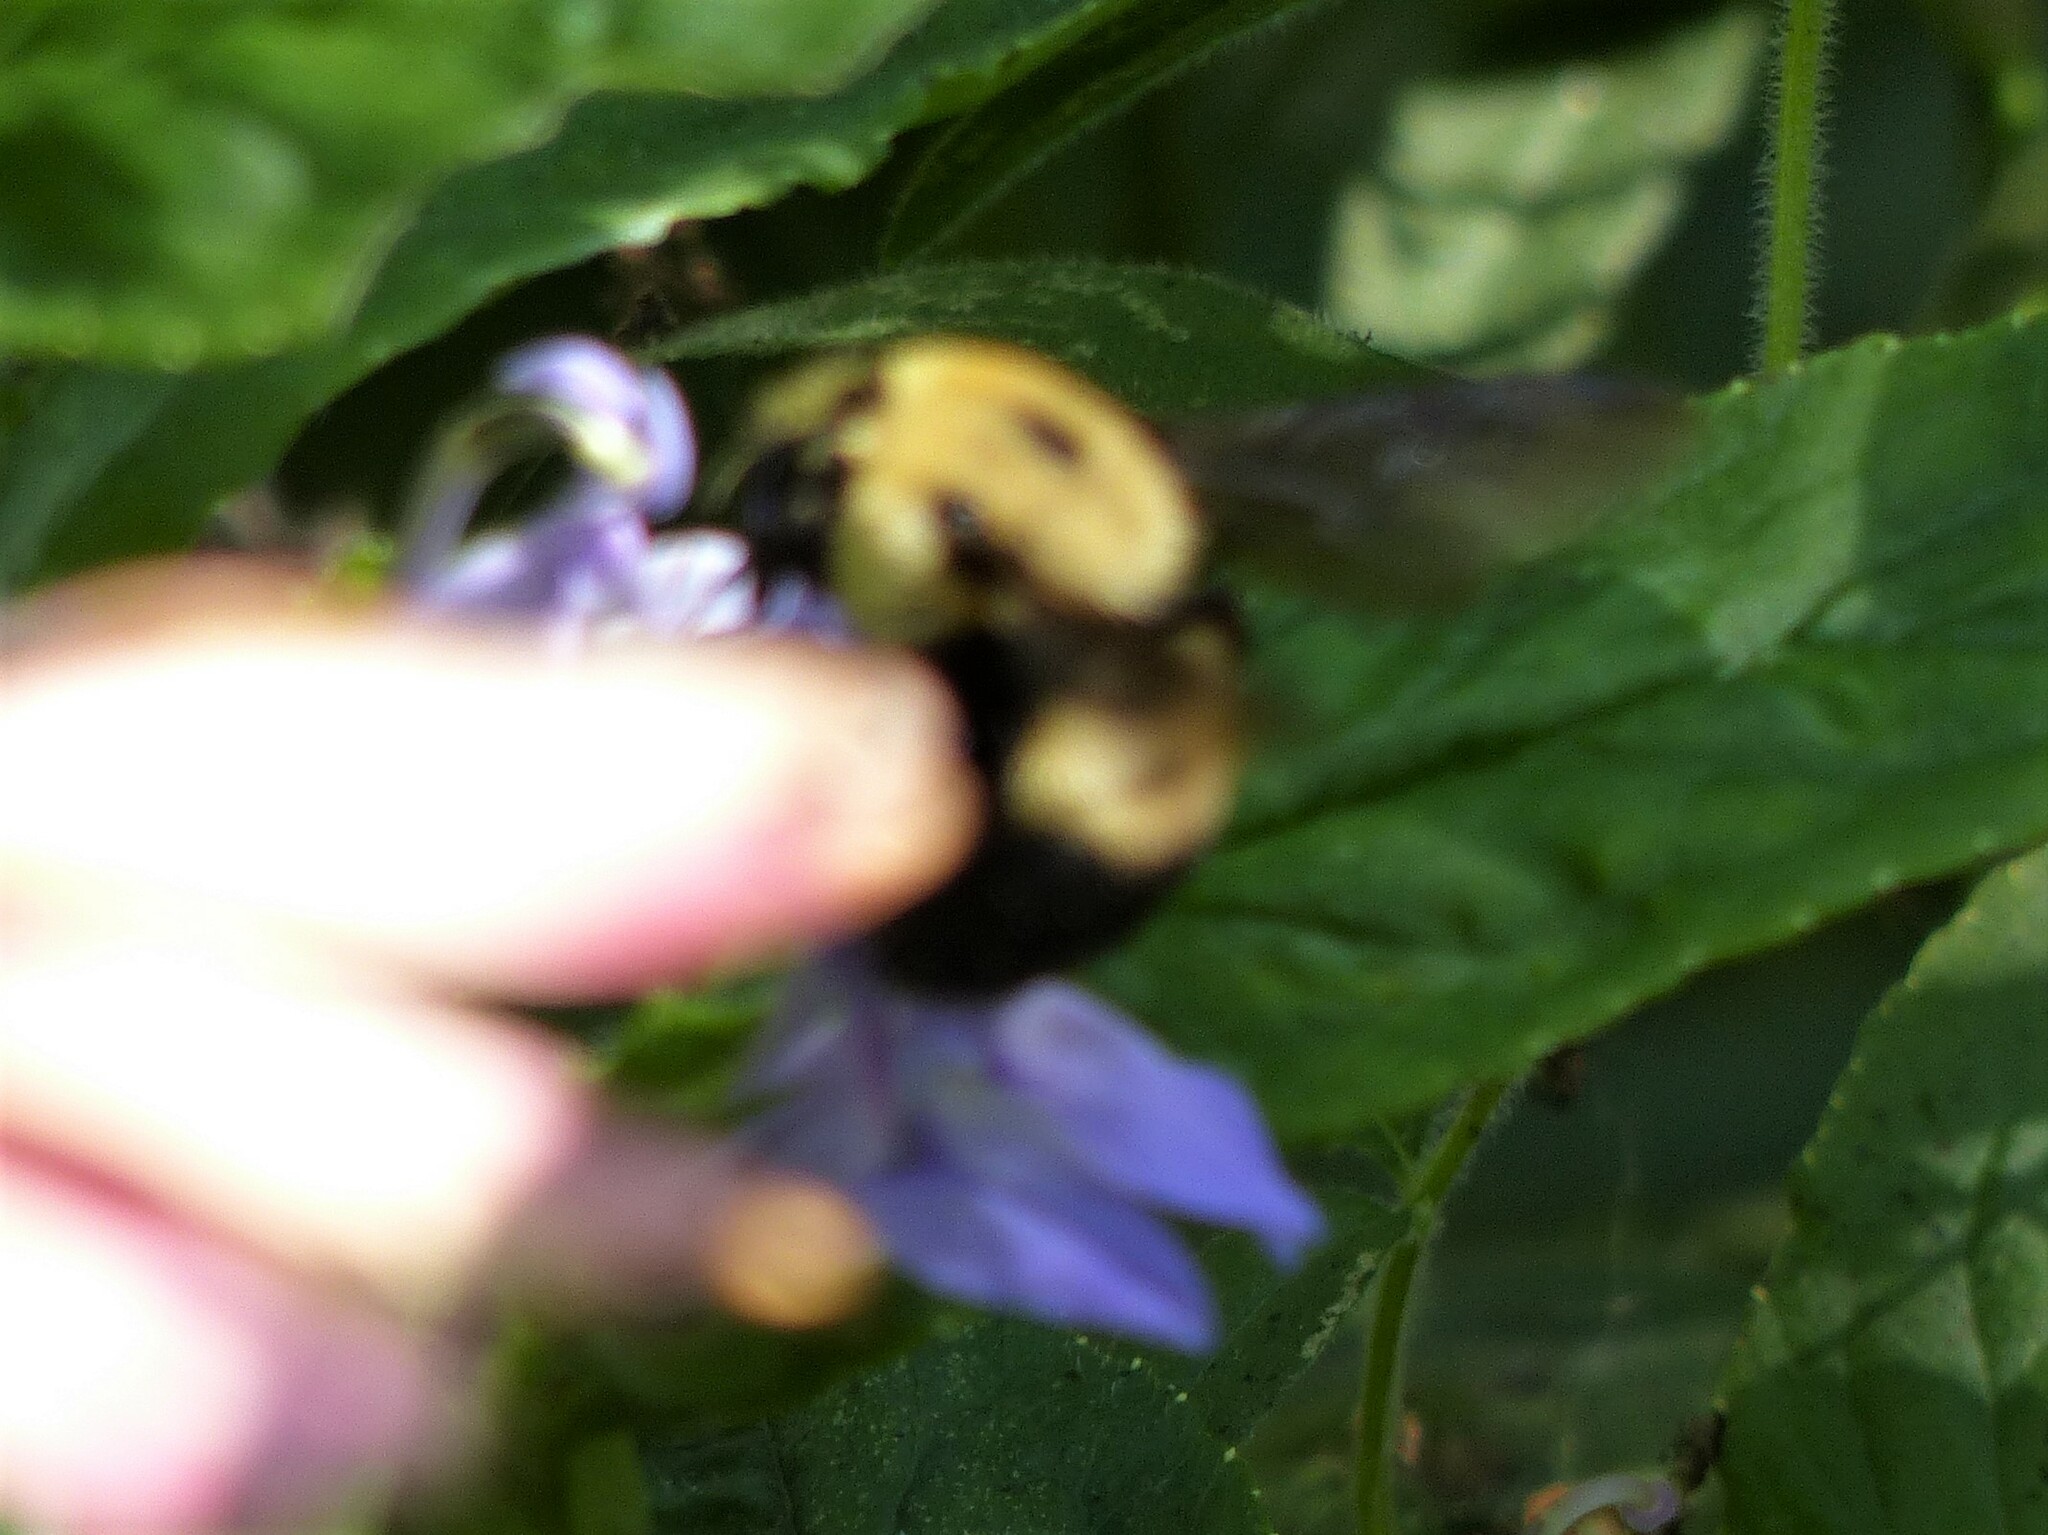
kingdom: Animalia
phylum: Arthropoda
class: Insecta
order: Hymenoptera
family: Apidae
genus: Bombus
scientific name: Bombus griseocollis
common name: Brown-belted bumble bee
